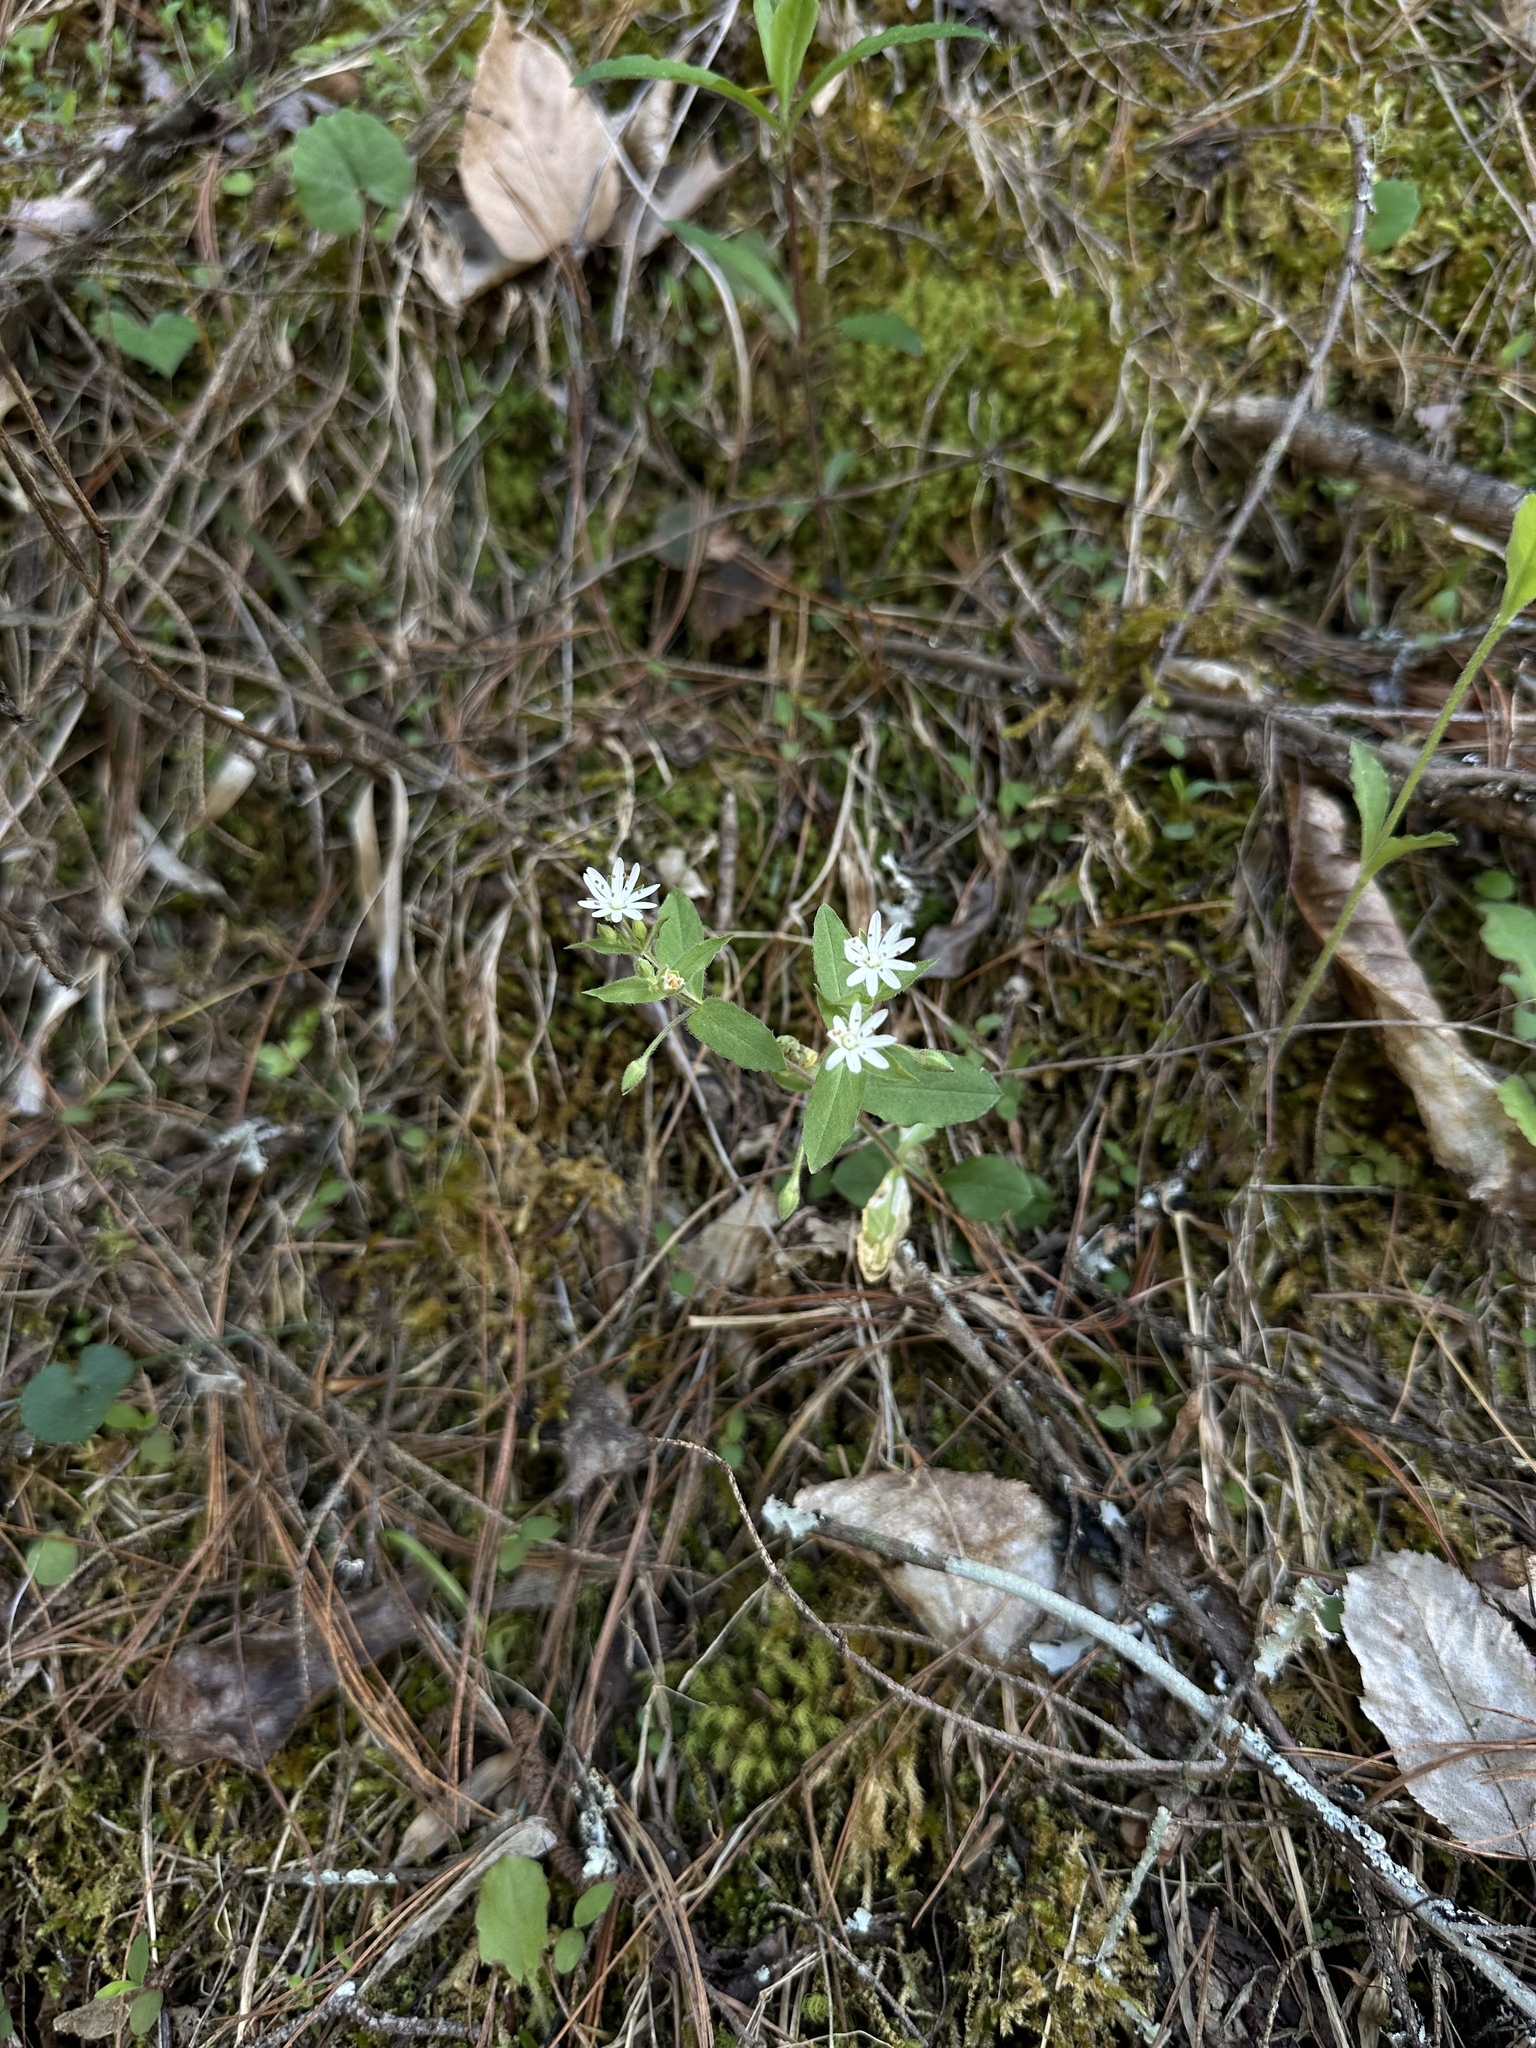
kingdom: Plantae
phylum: Tracheophyta
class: Magnoliopsida
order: Caryophyllales
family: Caryophyllaceae
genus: Stellaria
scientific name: Stellaria pubera
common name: Star chickweed
